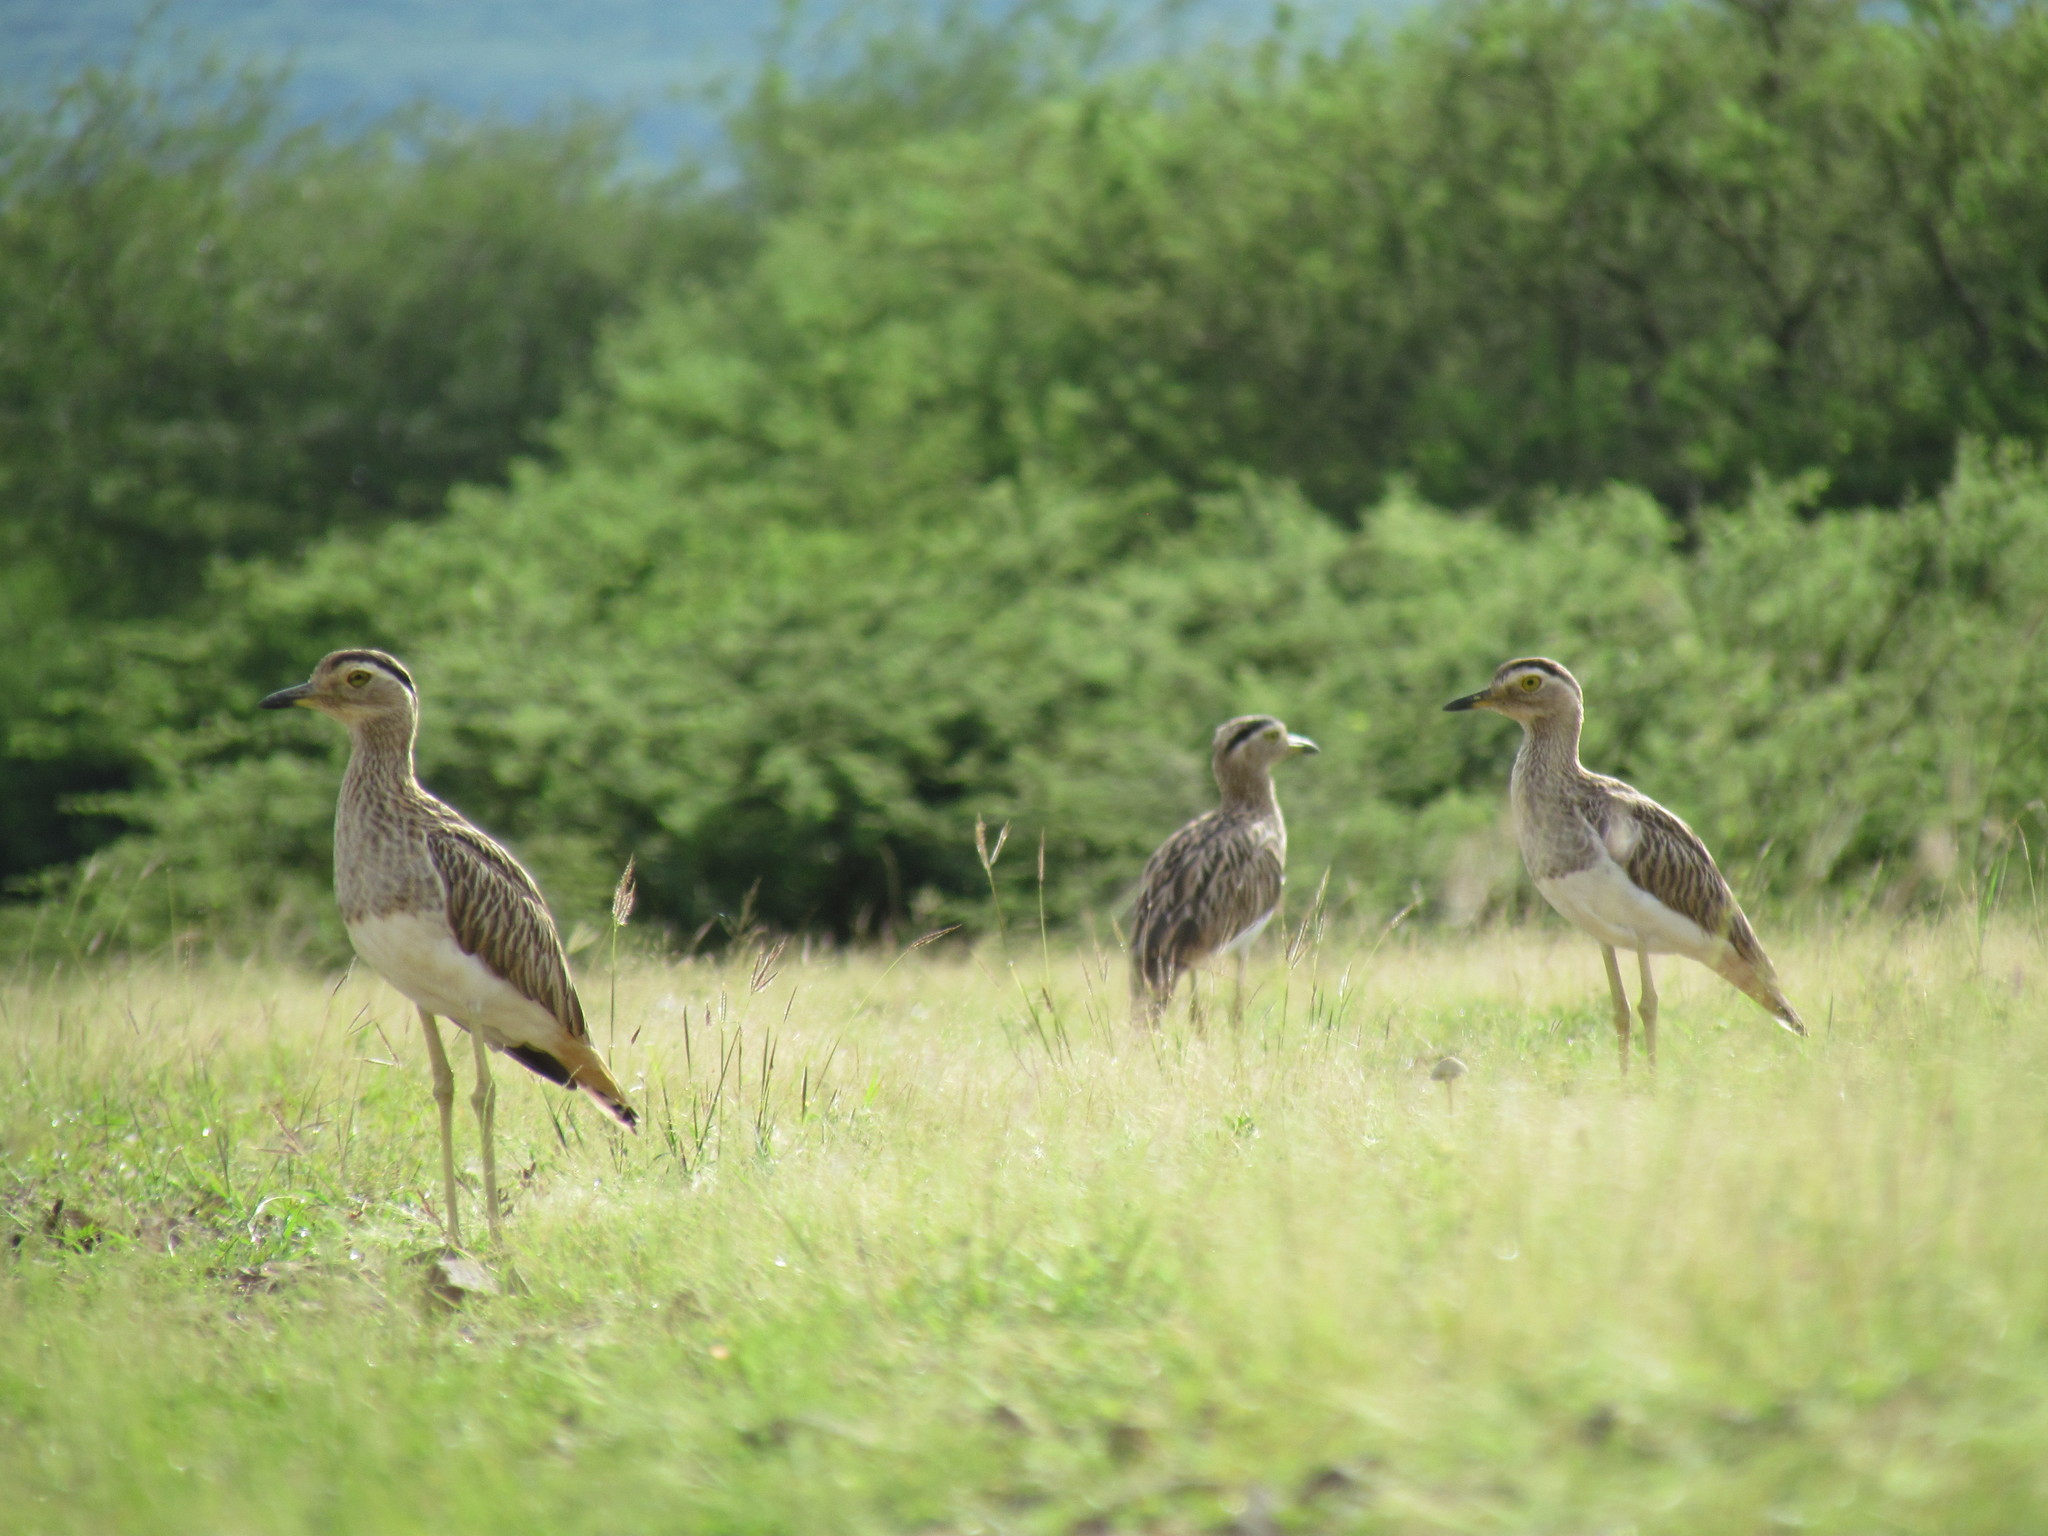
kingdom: Animalia
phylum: Chordata
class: Aves
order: Charadriiformes
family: Burhinidae
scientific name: Burhinidae
